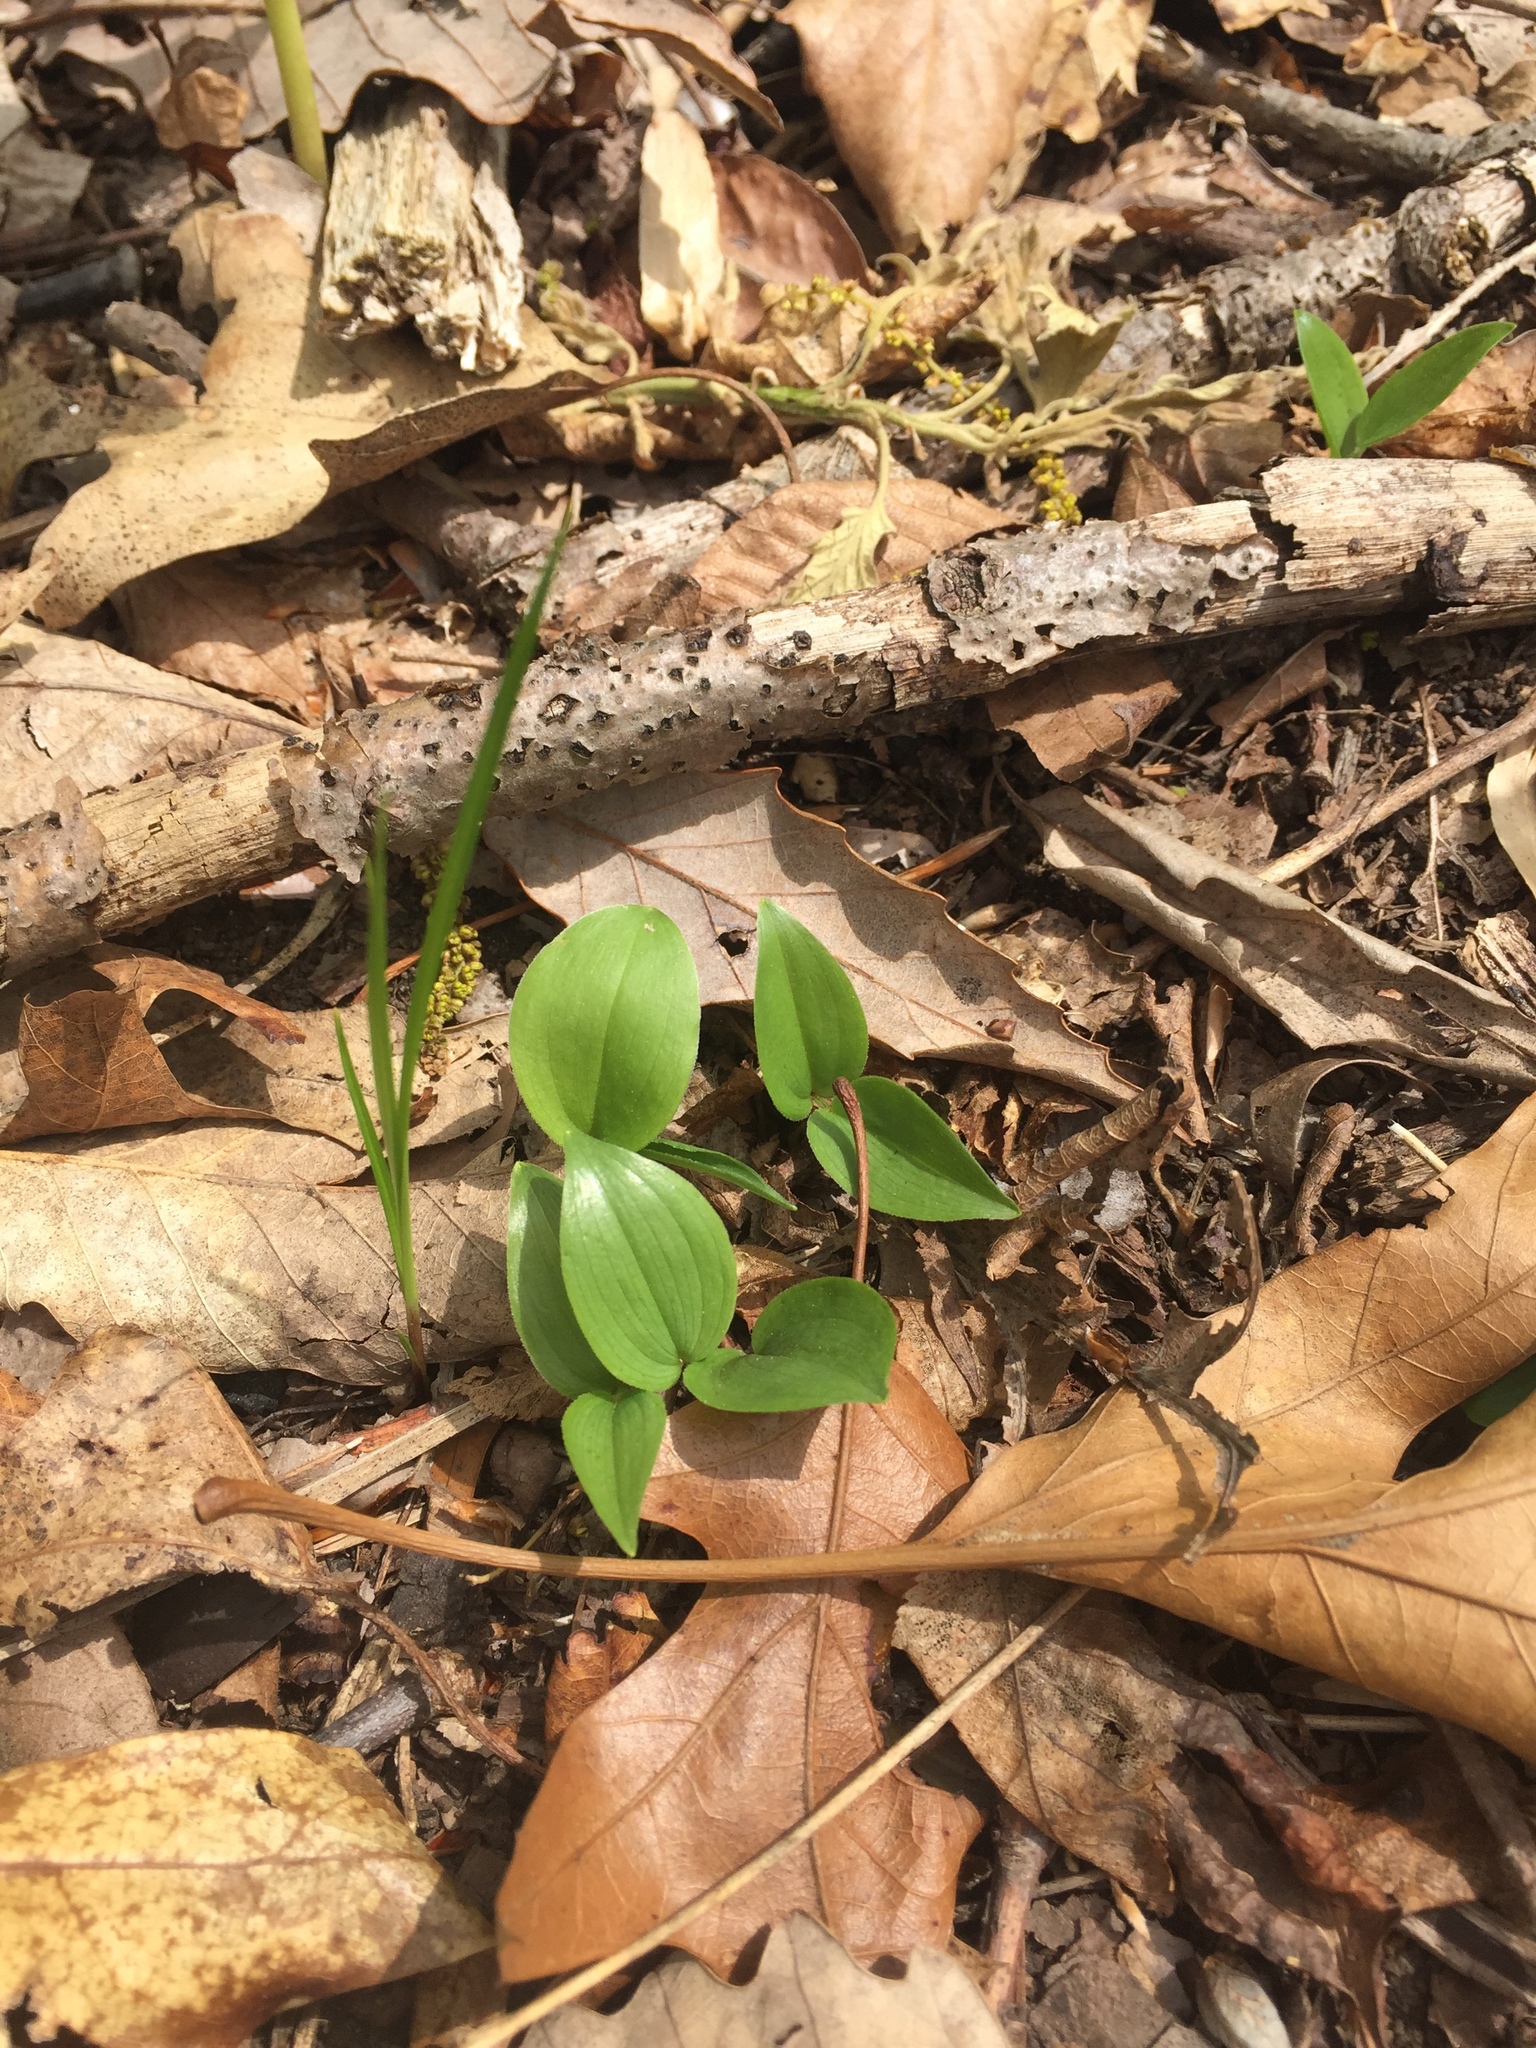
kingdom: Plantae
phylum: Tracheophyta
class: Liliopsida
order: Asparagales
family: Asparagaceae
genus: Maianthemum
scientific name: Maianthemum canadense
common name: False lily-of-the-valley
